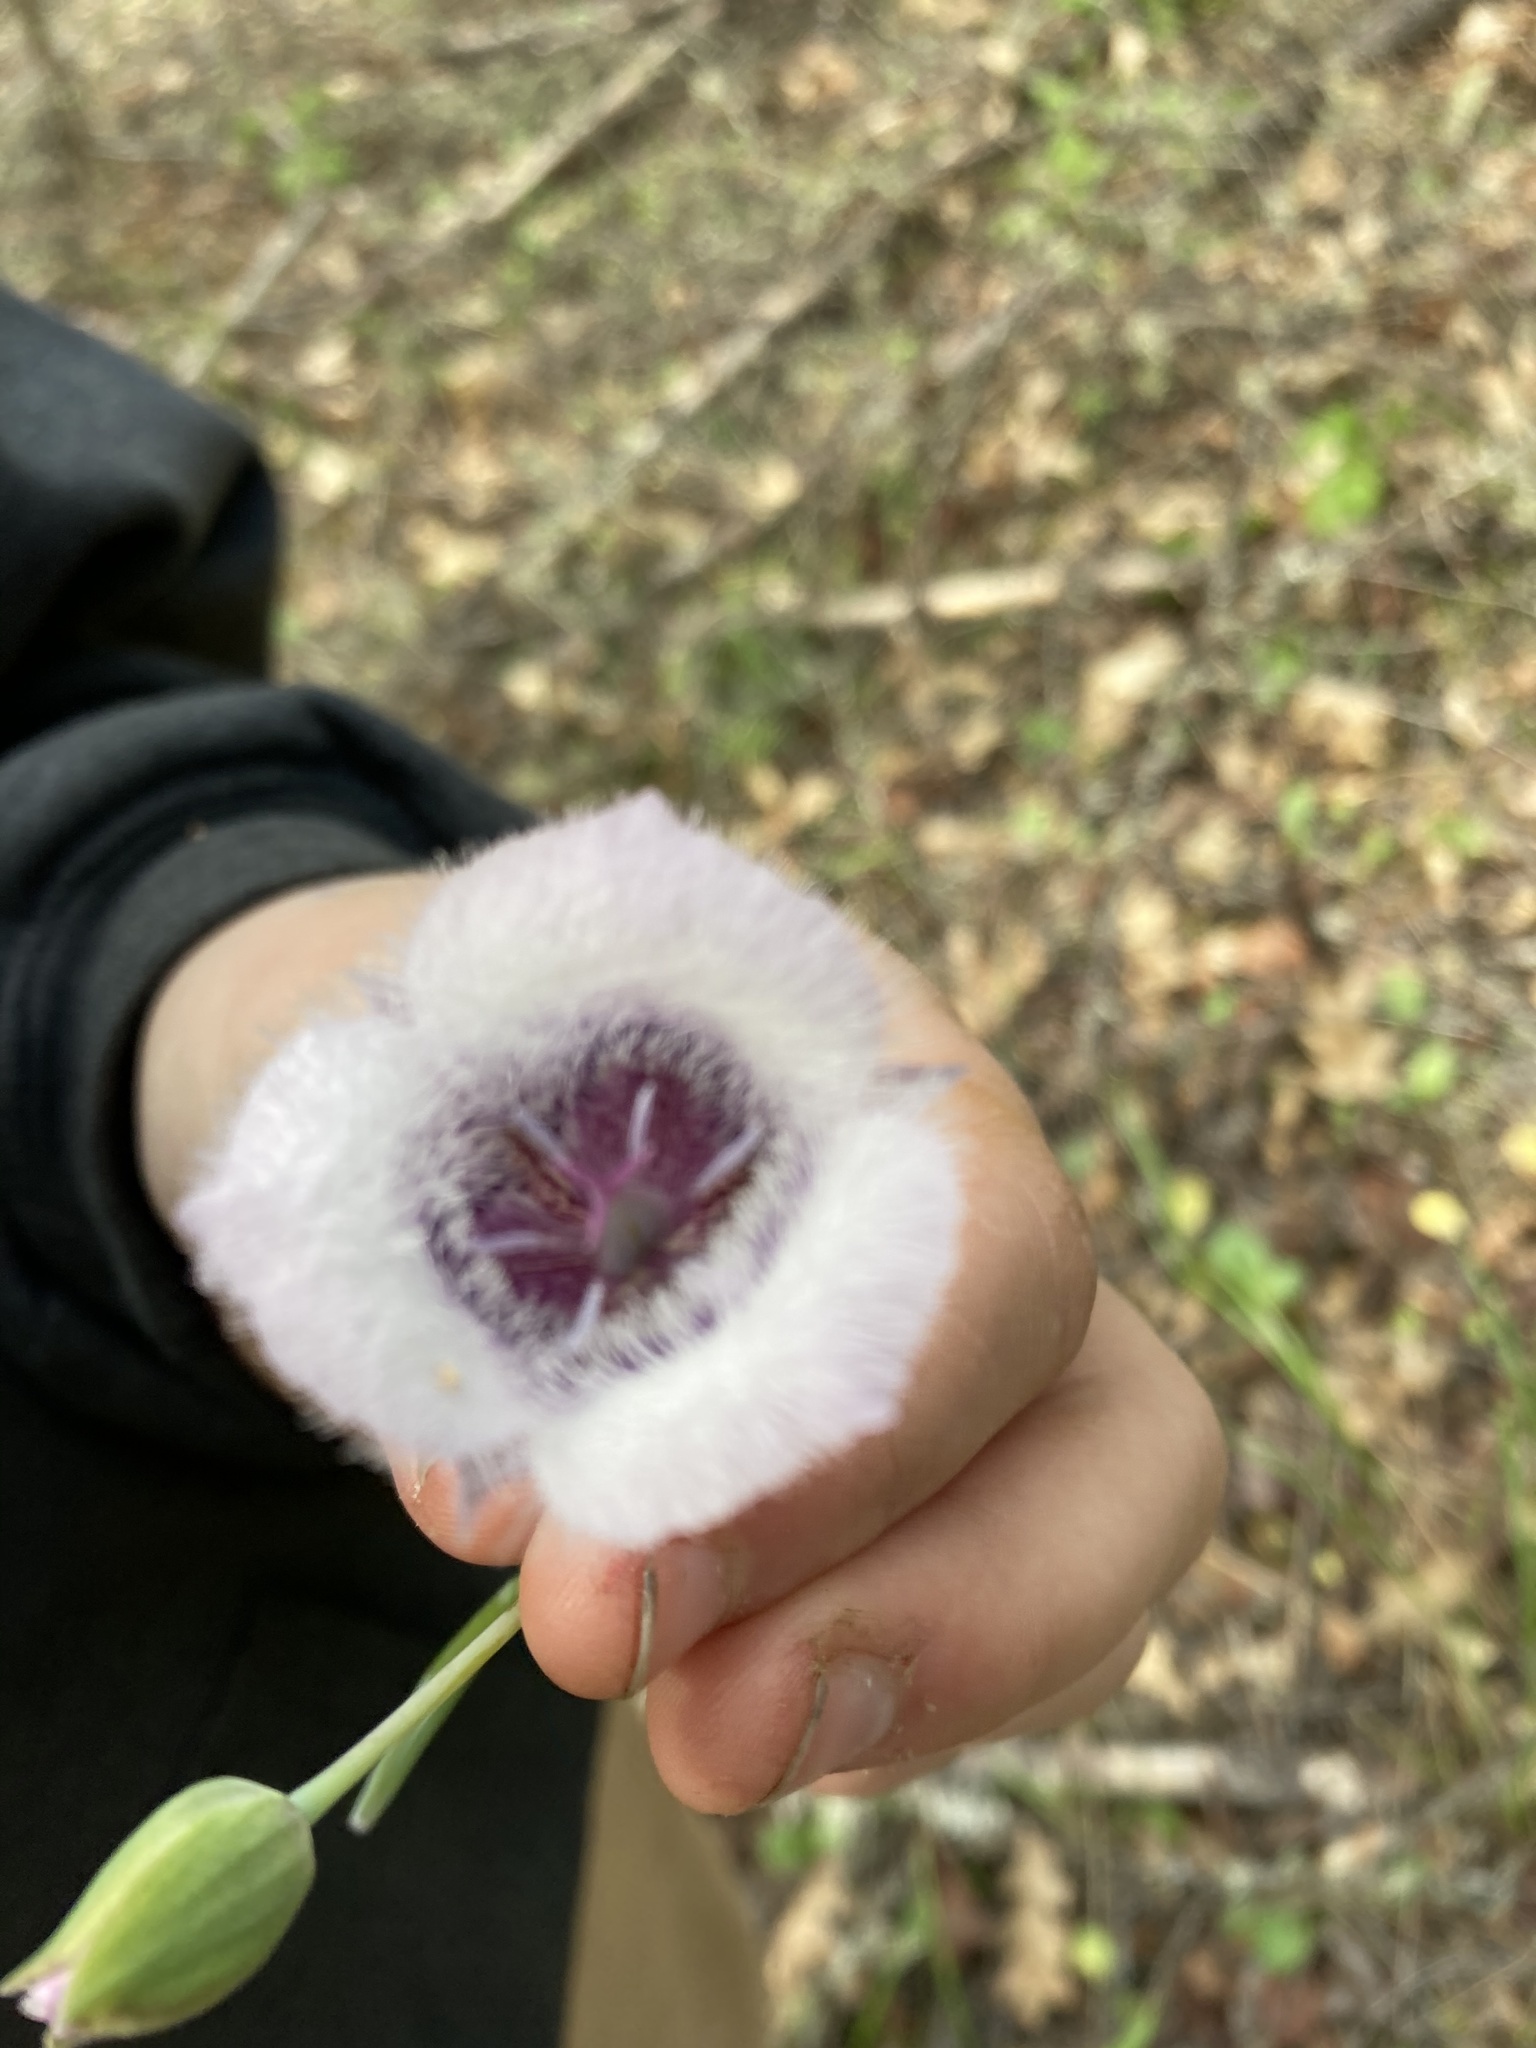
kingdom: Plantae
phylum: Tracheophyta
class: Liliopsida
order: Liliales
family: Liliaceae
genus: Calochortus
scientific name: Calochortus tolmiei
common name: Pussy-ears
